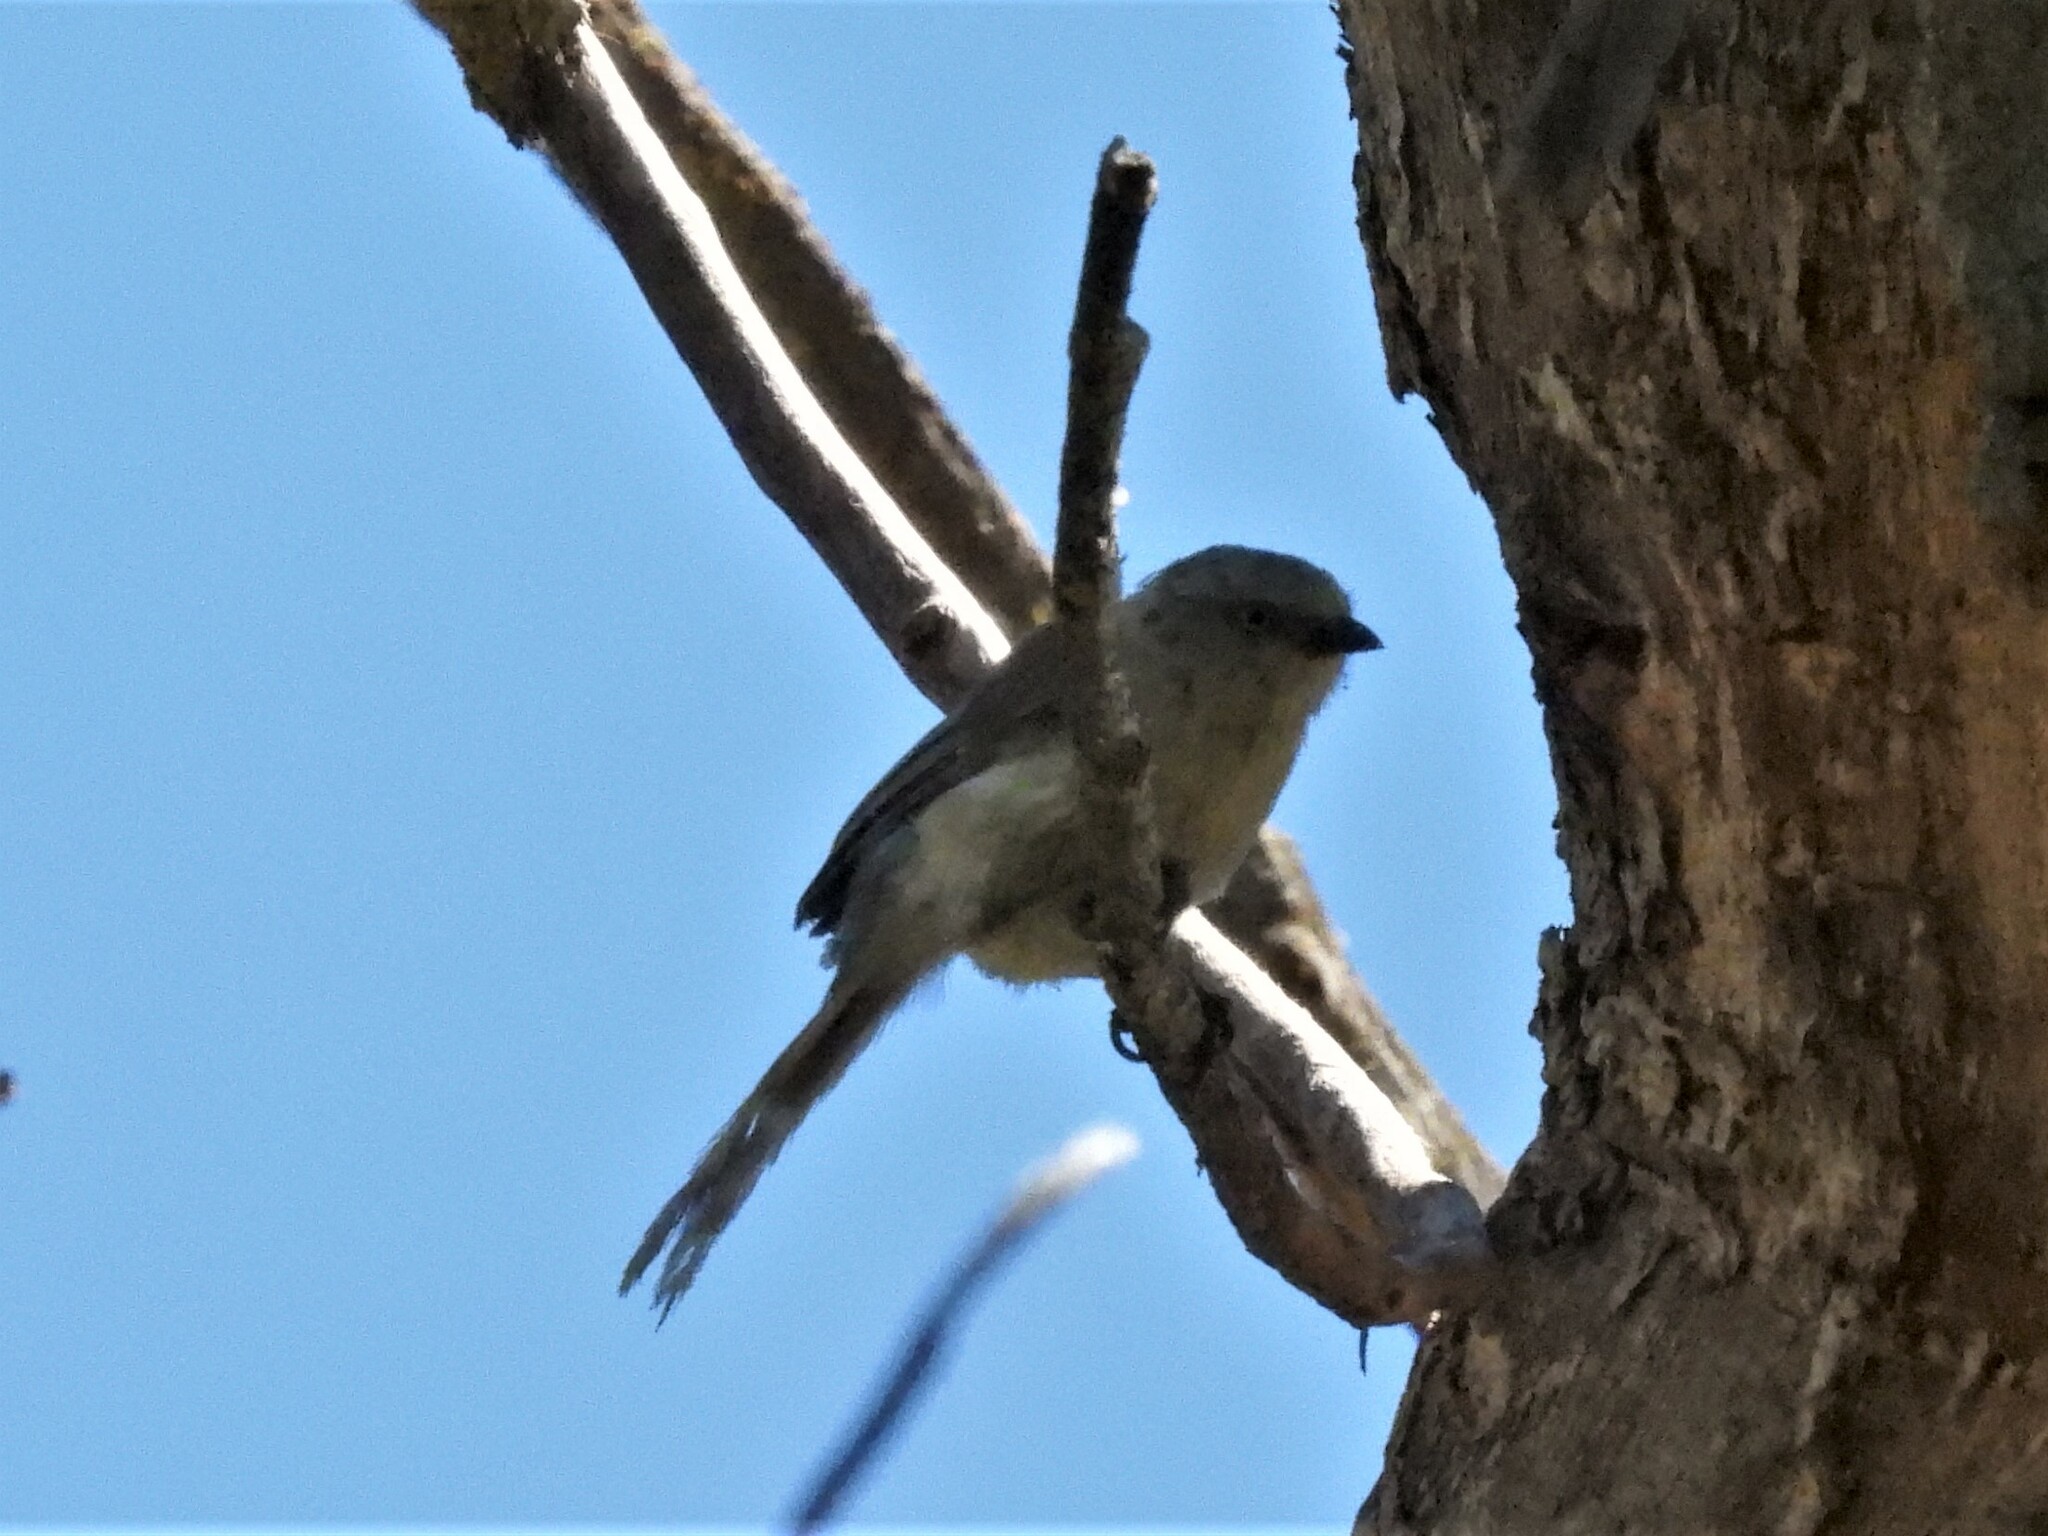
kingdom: Animalia
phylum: Chordata
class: Aves
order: Passeriformes
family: Aegithalidae
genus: Psaltriparus
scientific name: Psaltriparus minimus
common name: American bushtit
